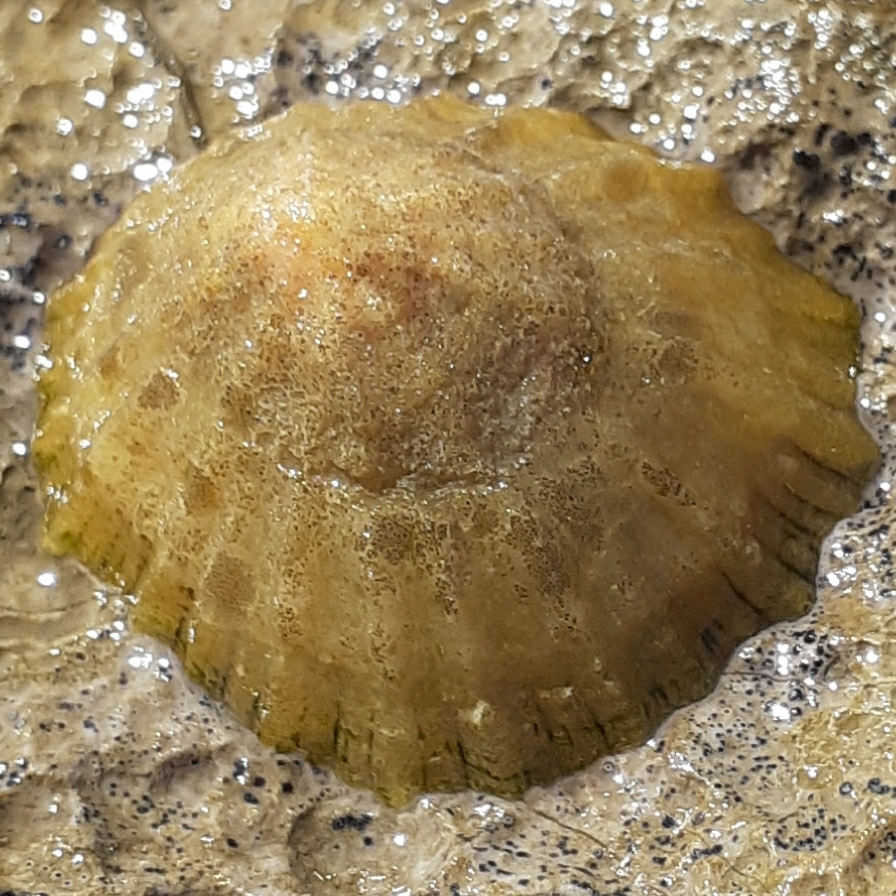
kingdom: Animalia
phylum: Mollusca
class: Gastropoda
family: Patellidae
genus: Patella
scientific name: Patella vulgata
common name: Common limpet
